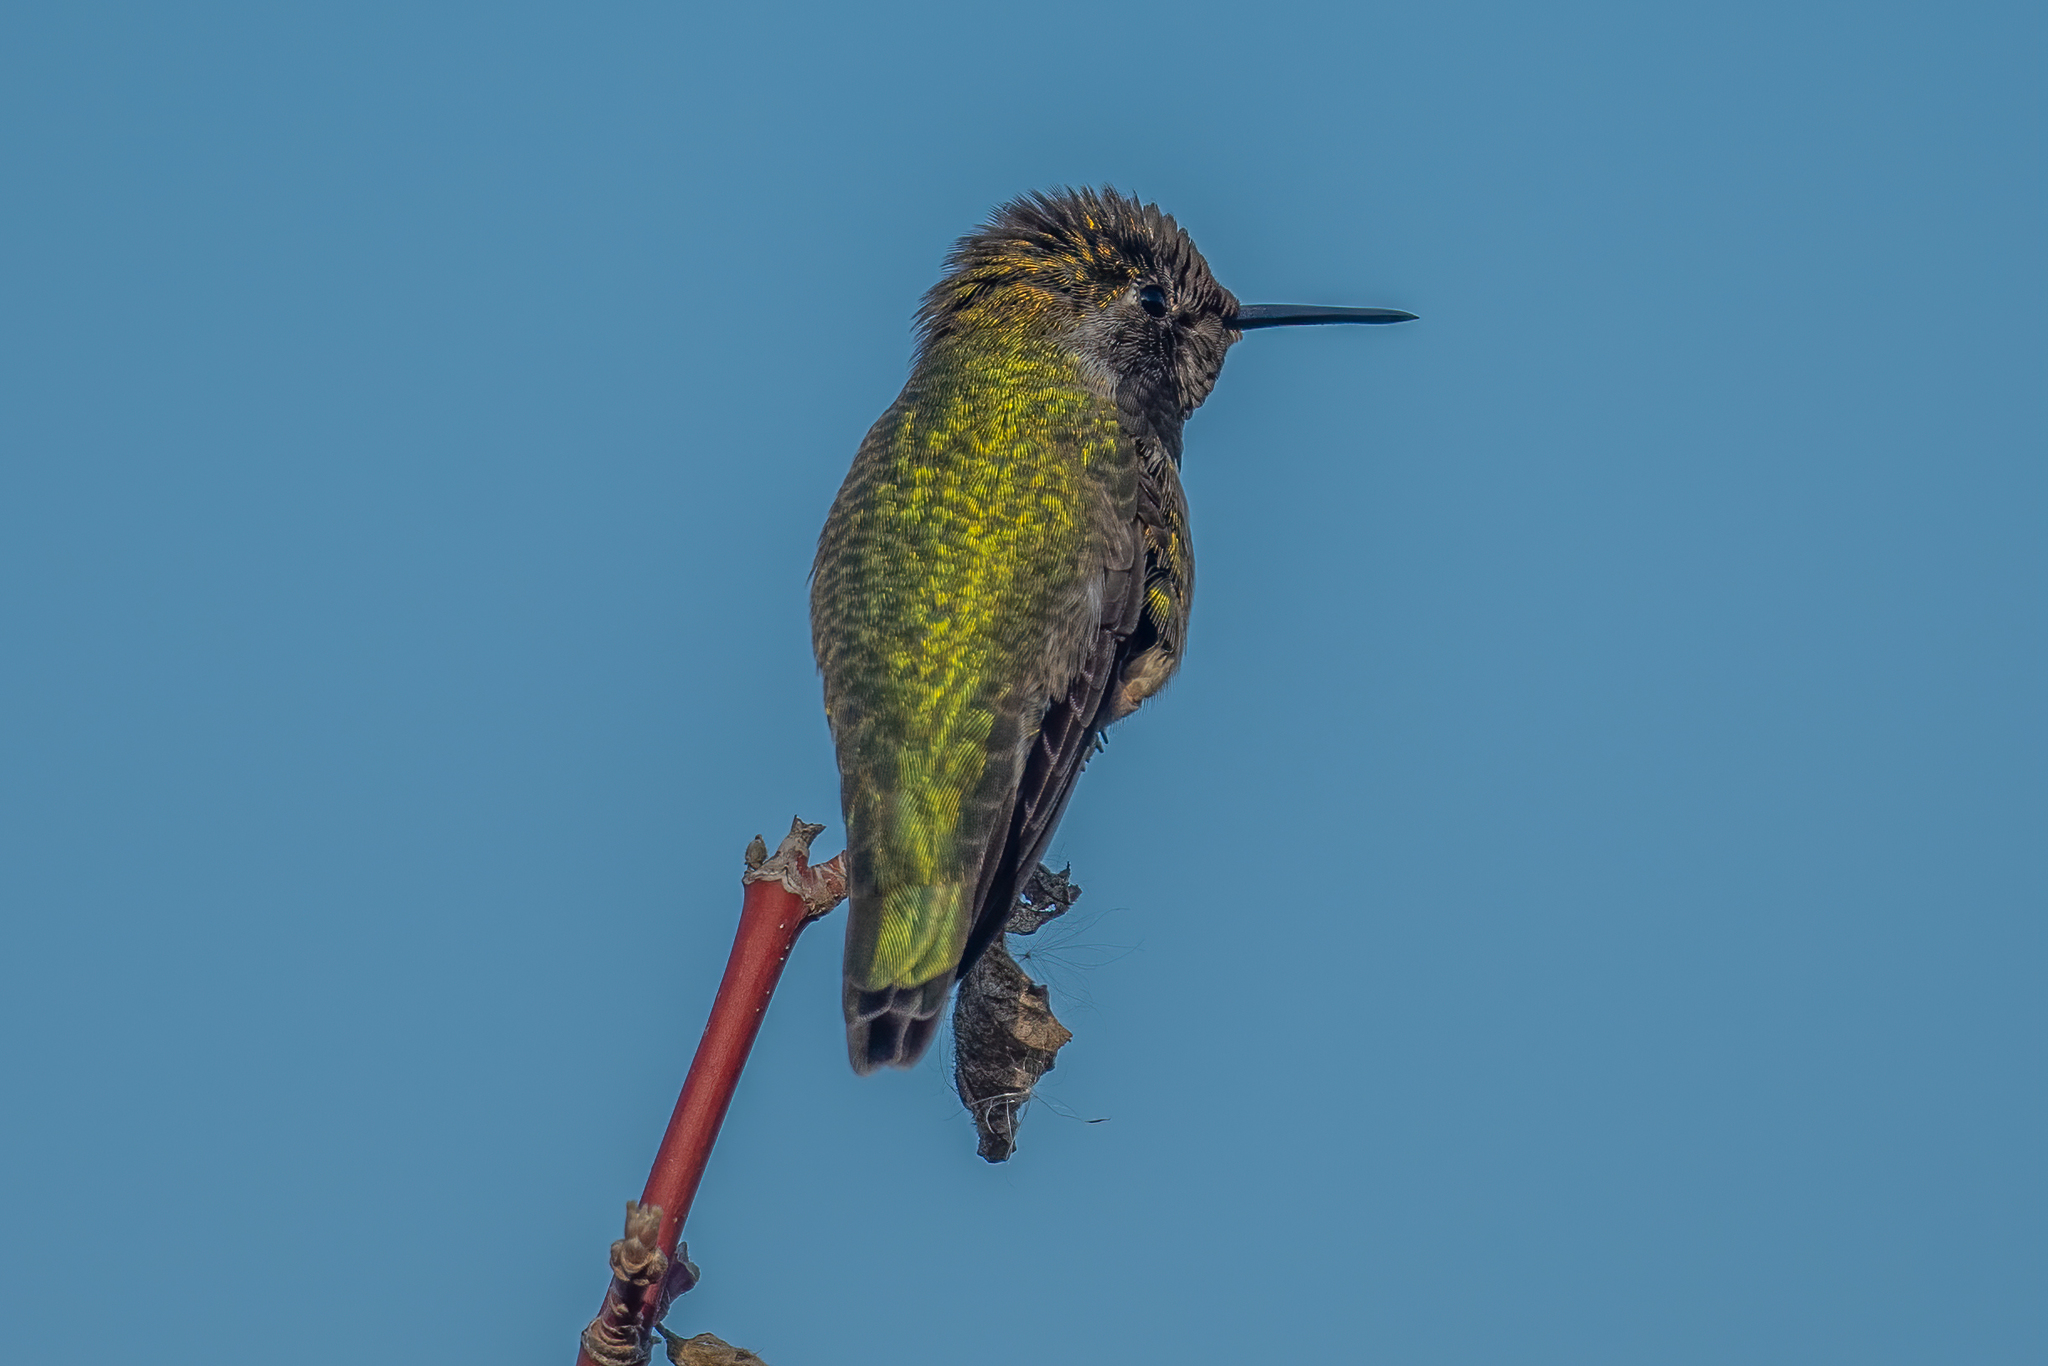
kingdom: Animalia
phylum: Chordata
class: Aves
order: Apodiformes
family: Trochilidae
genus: Calypte
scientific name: Calypte anna
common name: Anna's hummingbird
